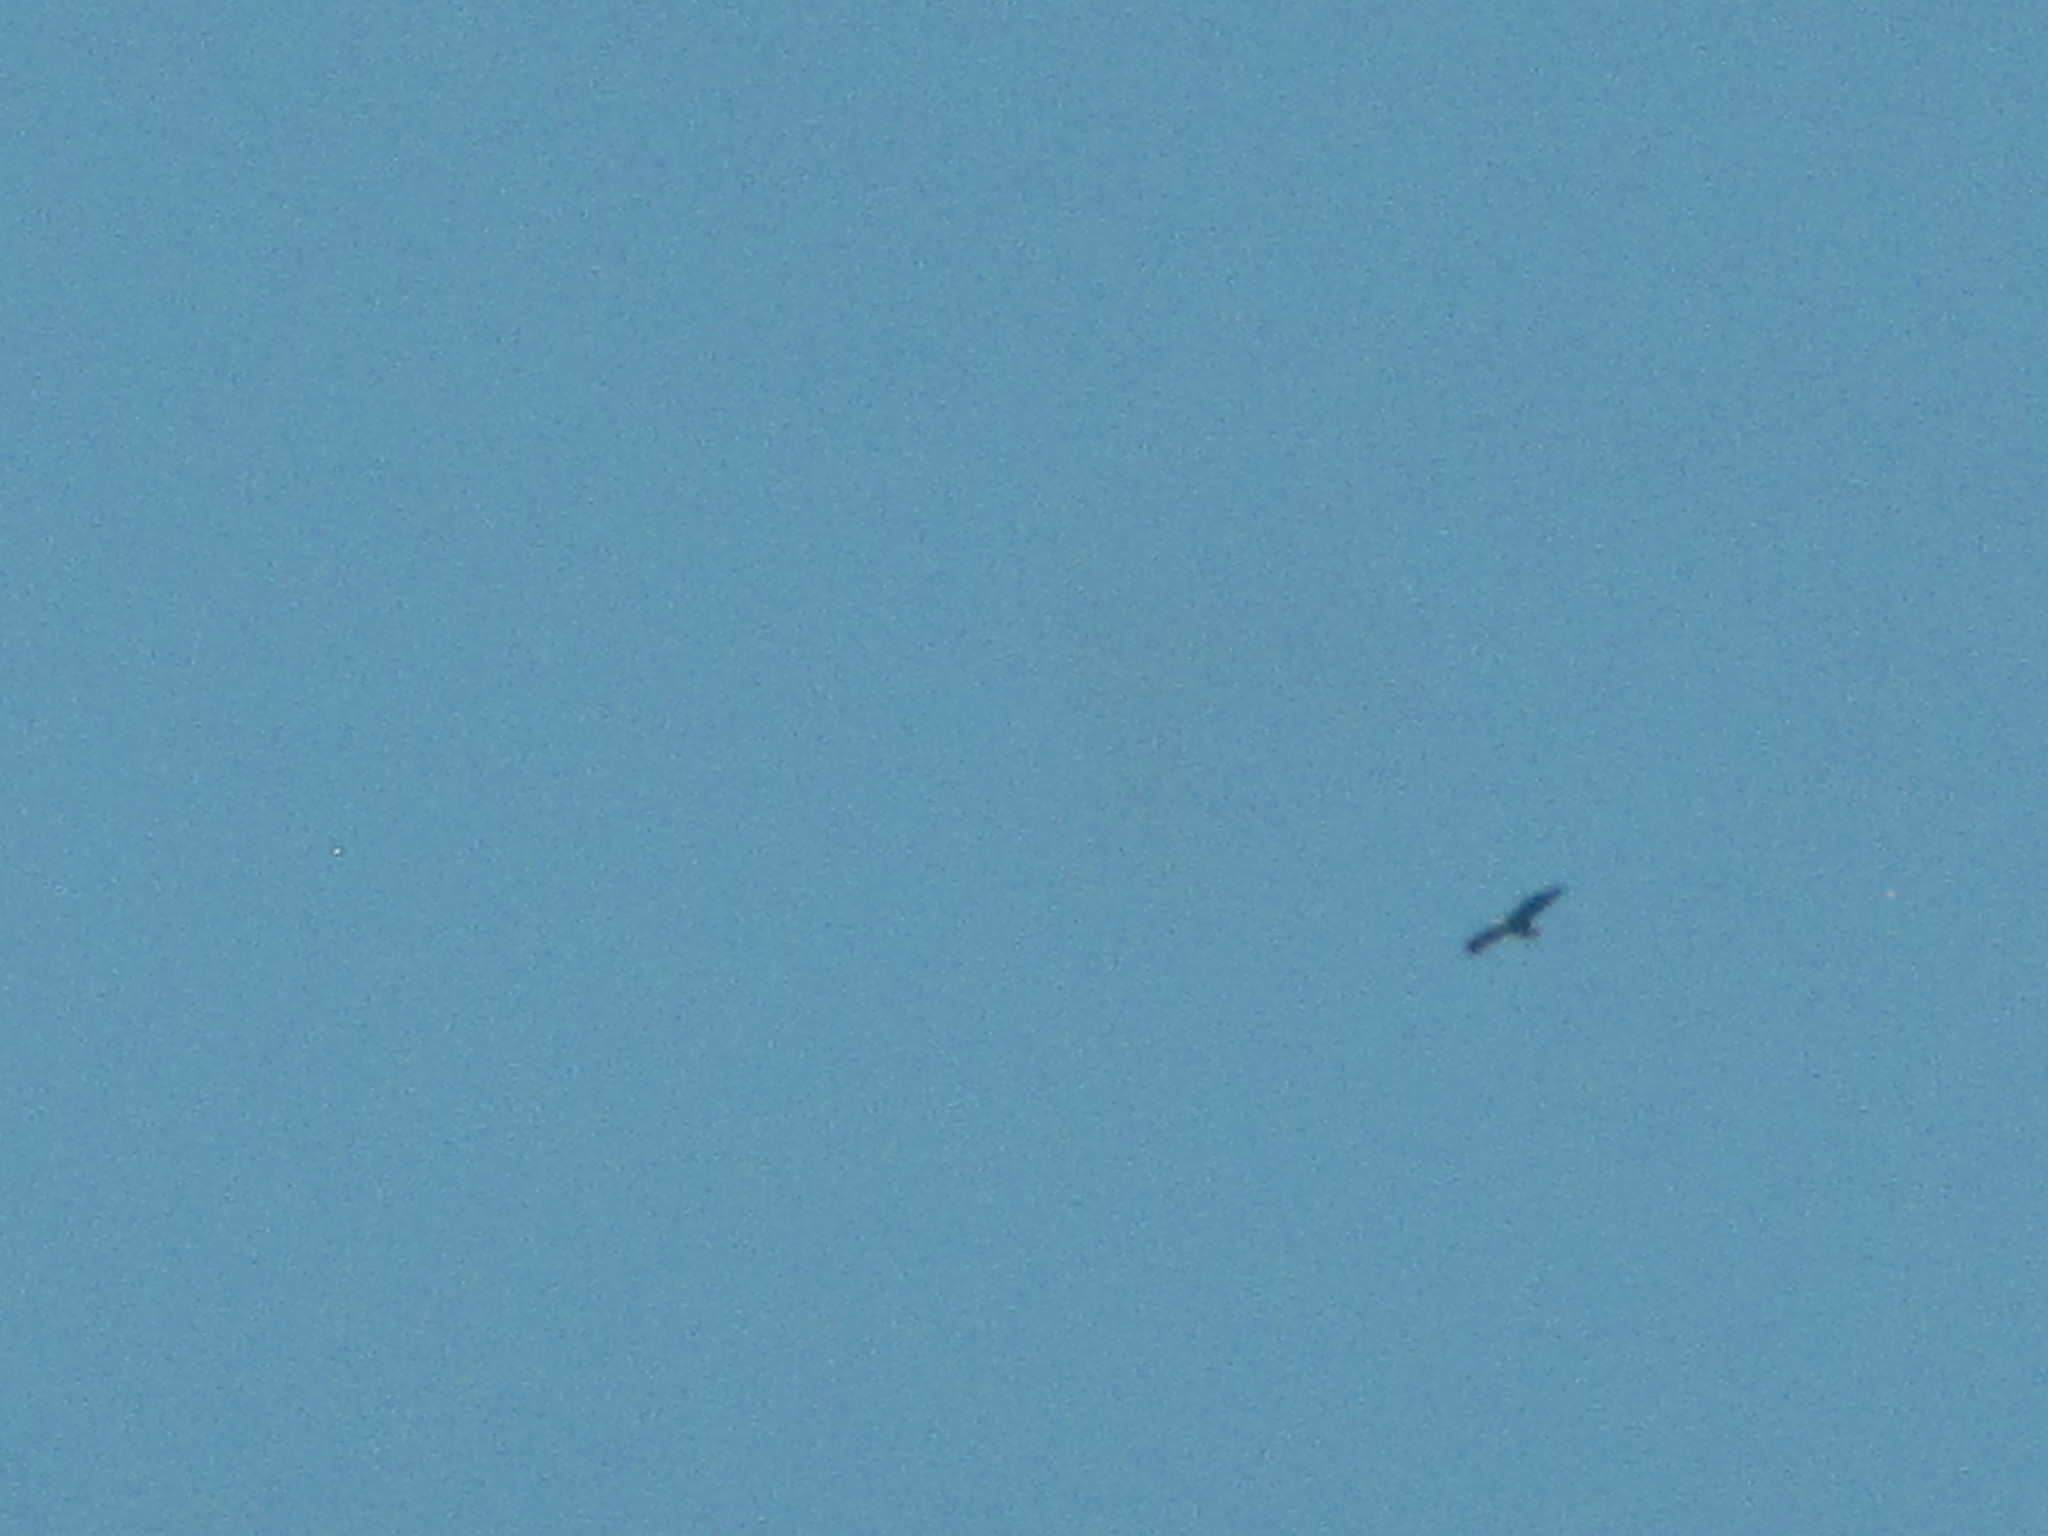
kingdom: Animalia
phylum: Chordata
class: Aves
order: Accipitriformes
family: Accipitridae
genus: Haliaeetus
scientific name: Haliaeetus leucocephalus
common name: Bald eagle
